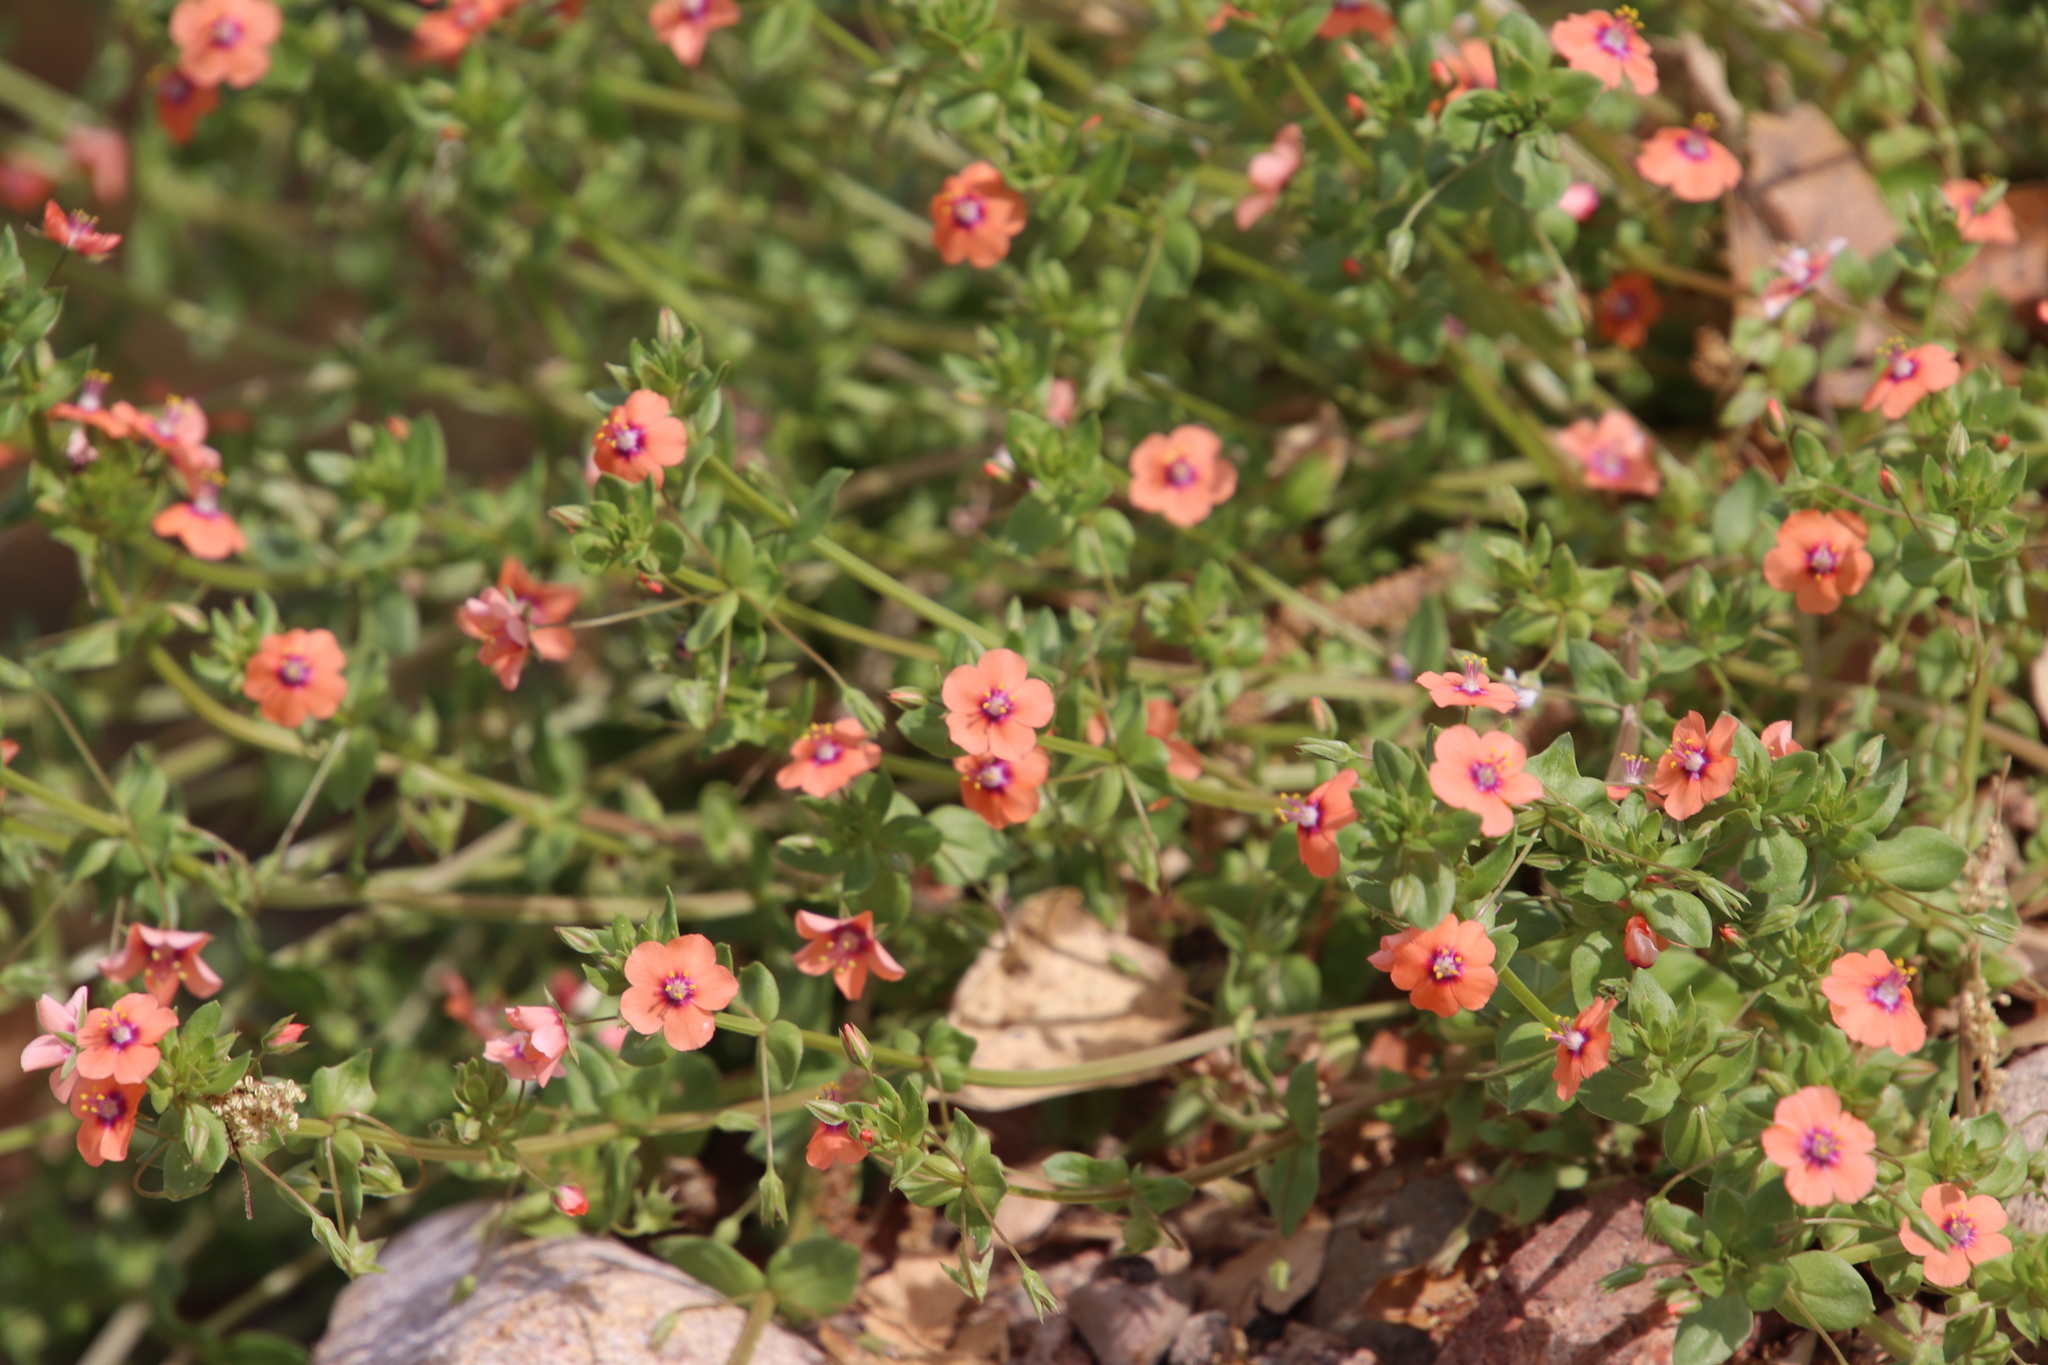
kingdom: Plantae
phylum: Tracheophyta
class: Magnoliopsida
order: Ericales
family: Primulaceae
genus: Lysimachia
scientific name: Lysimachia arvensis
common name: Scarlet pimpernel
